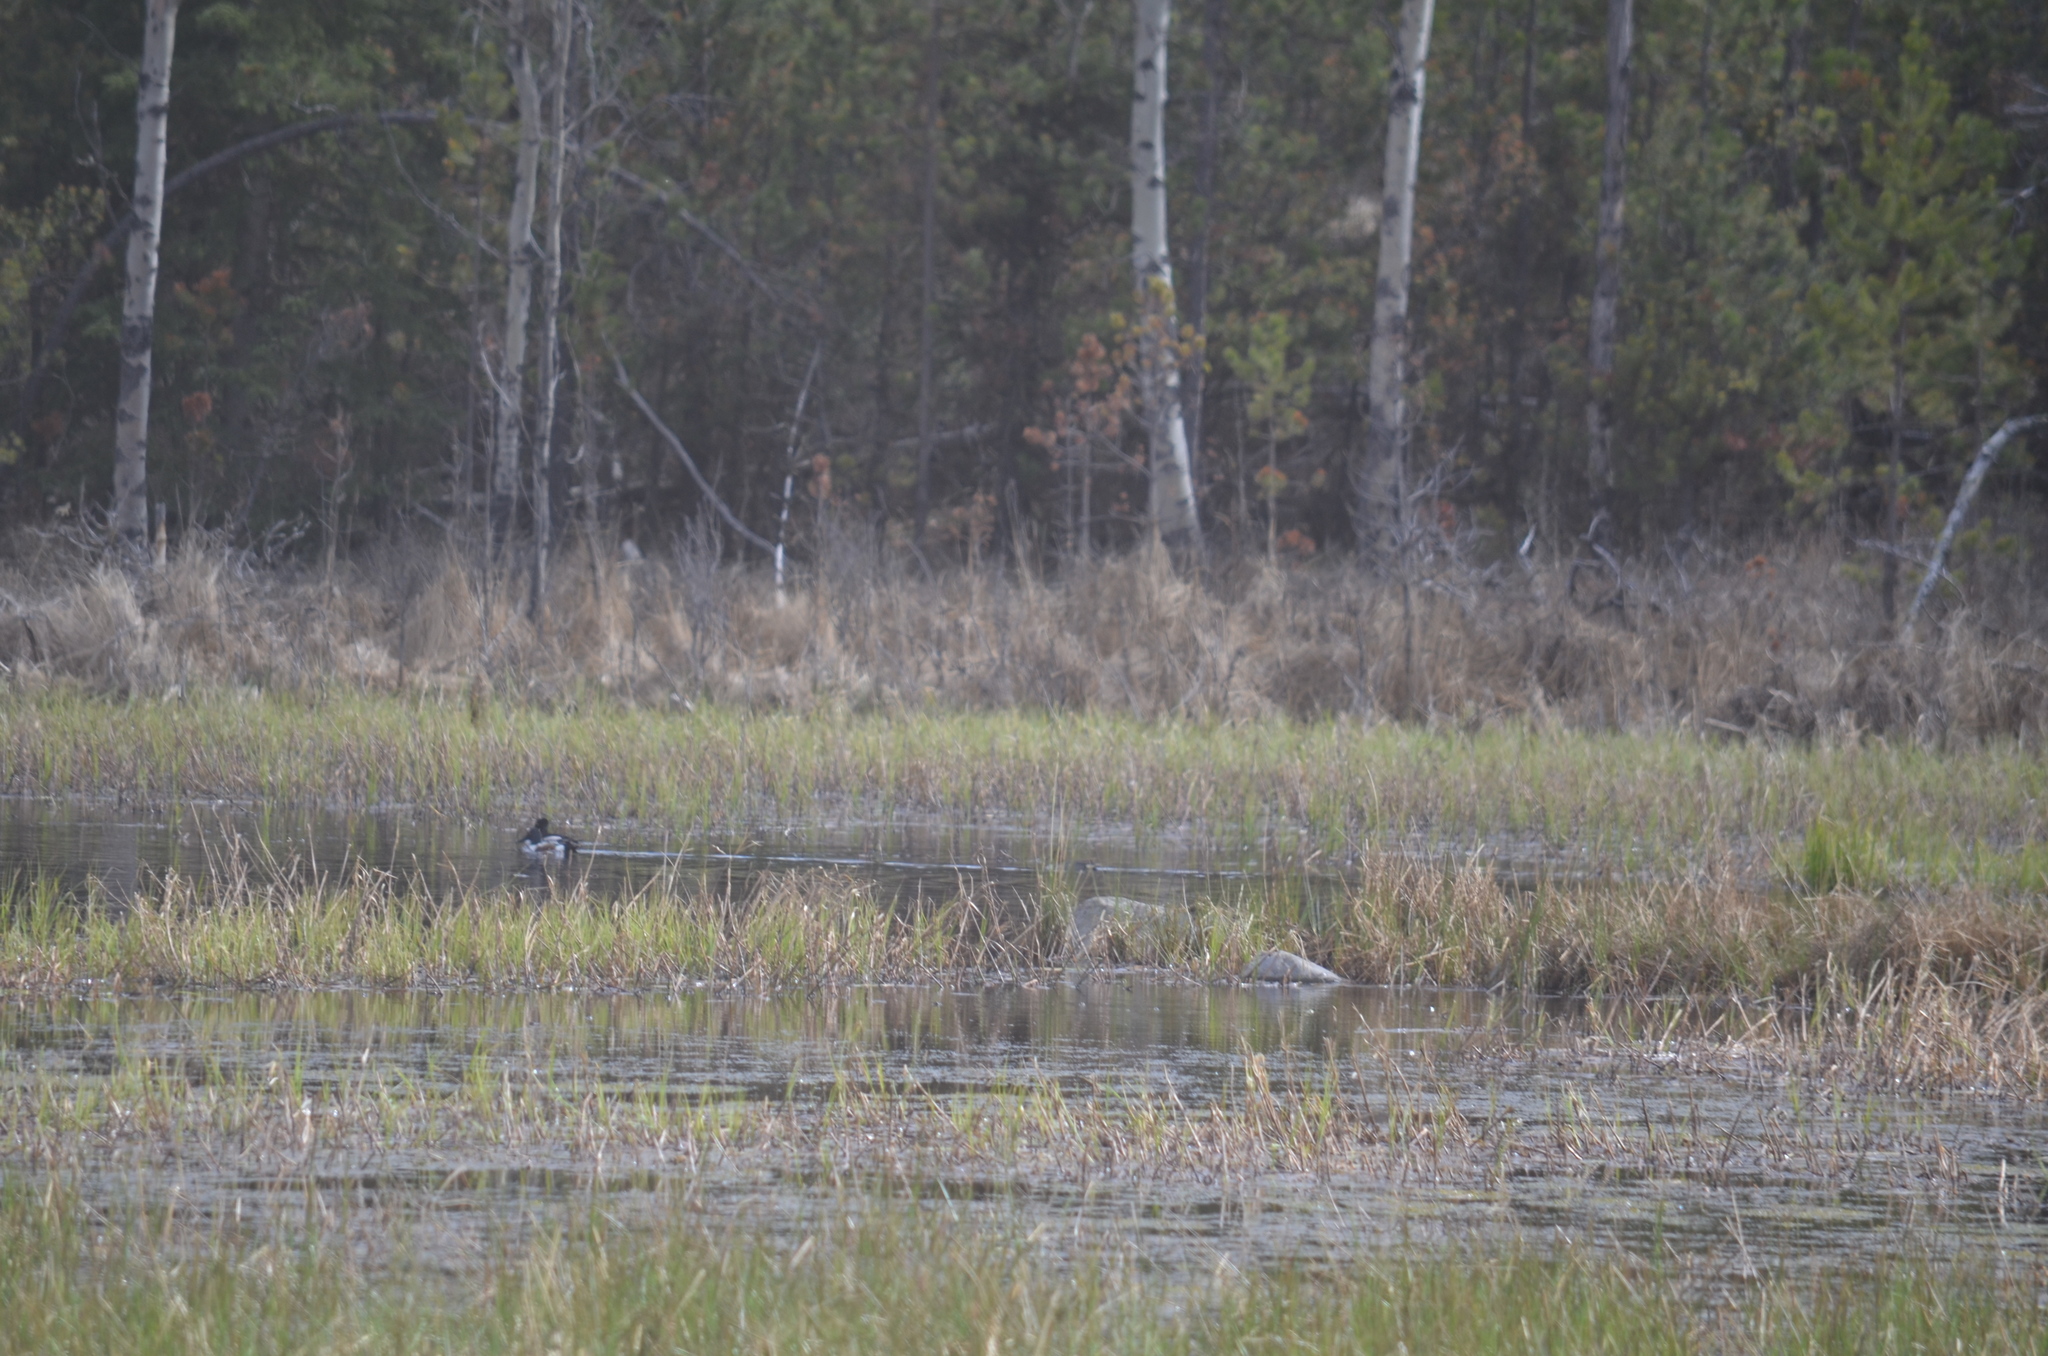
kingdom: Animalia
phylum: Chordata
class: Aves
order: Anseriformes
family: Anatidae
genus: Spatula
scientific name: Spatula clypeata
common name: Northern shoveler
